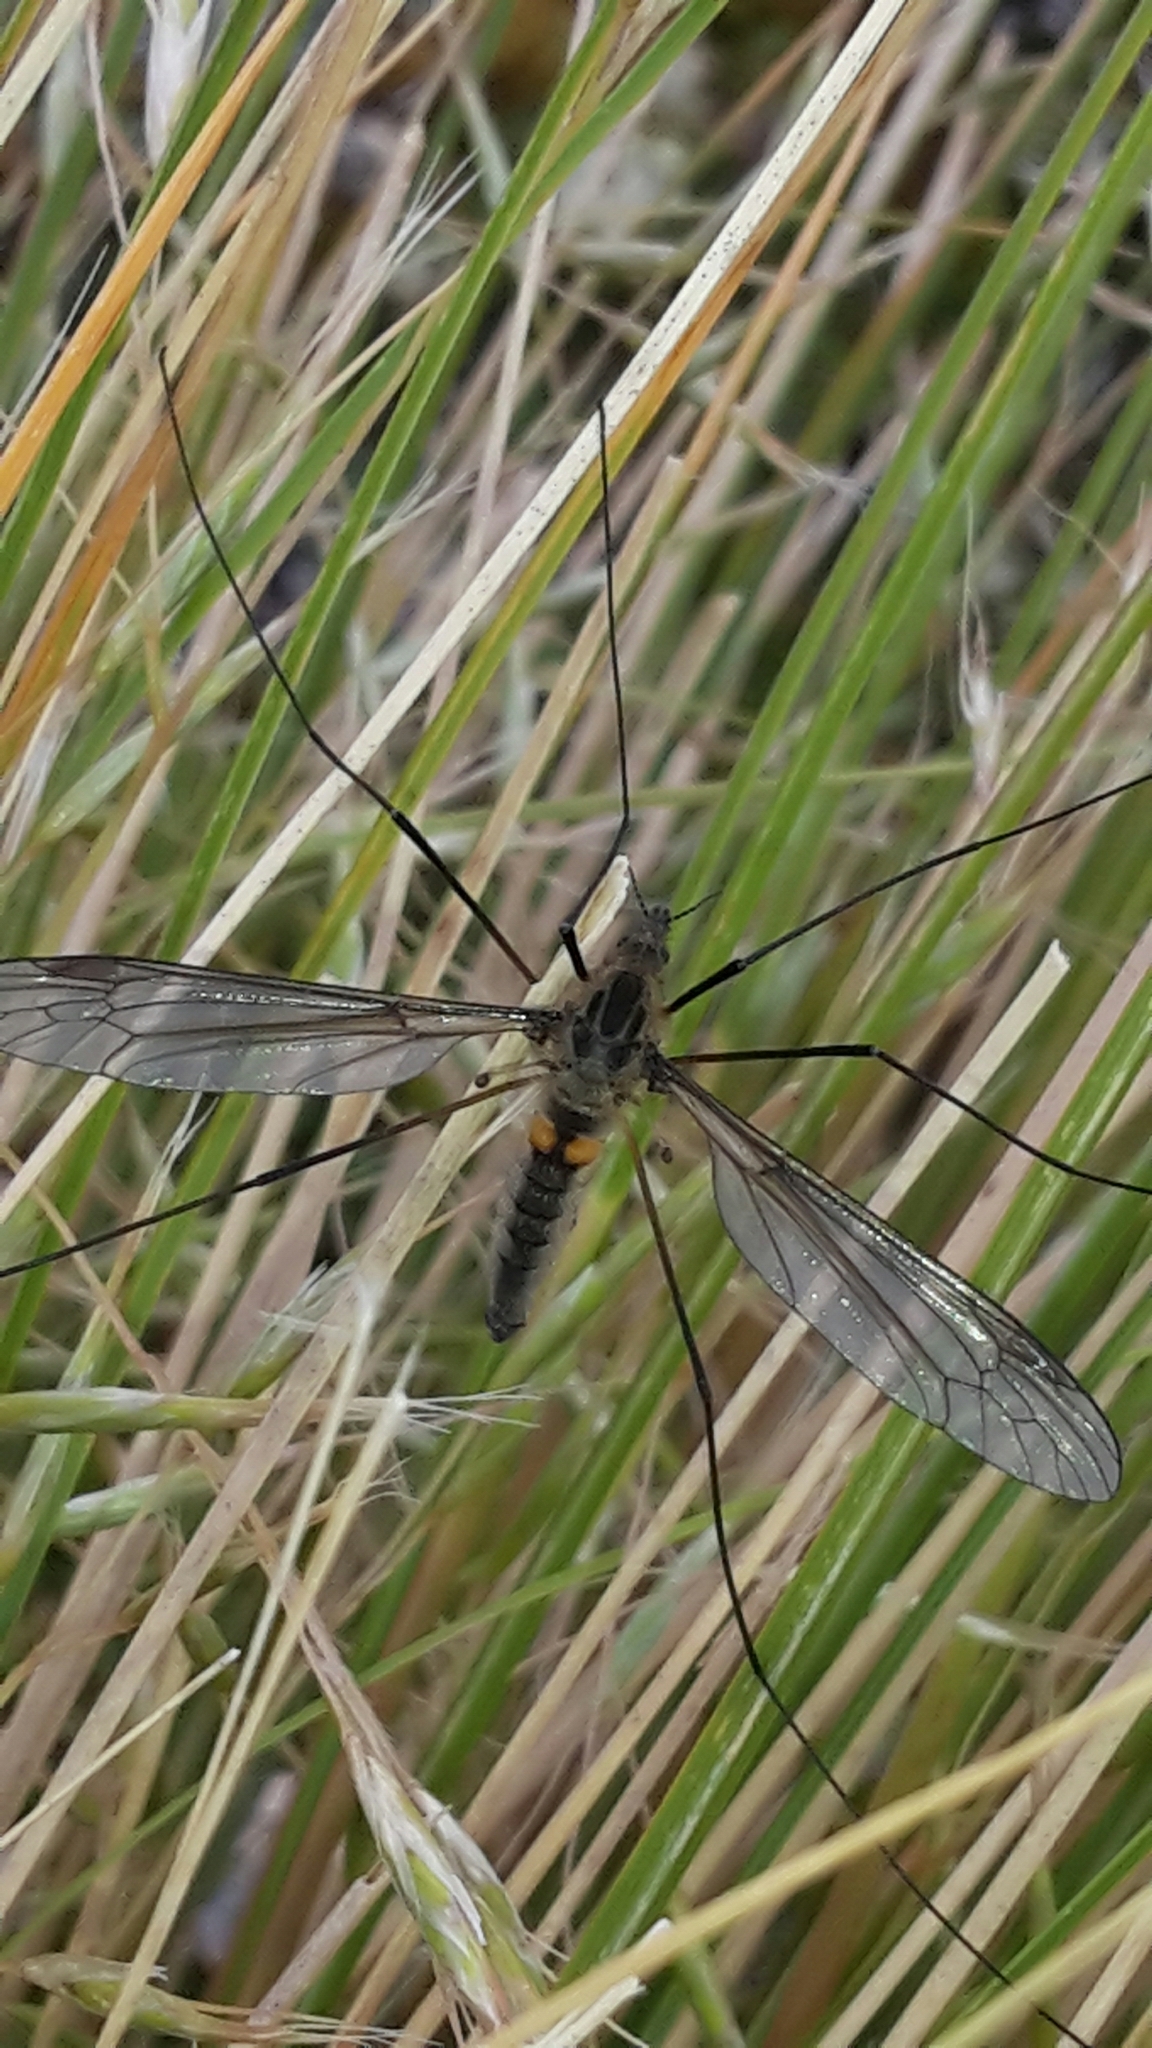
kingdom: Animalia
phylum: Arthropoda
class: Insecta
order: Diptera
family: Tipulidae
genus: Leptotarsus
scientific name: Leptotarsus montanus
